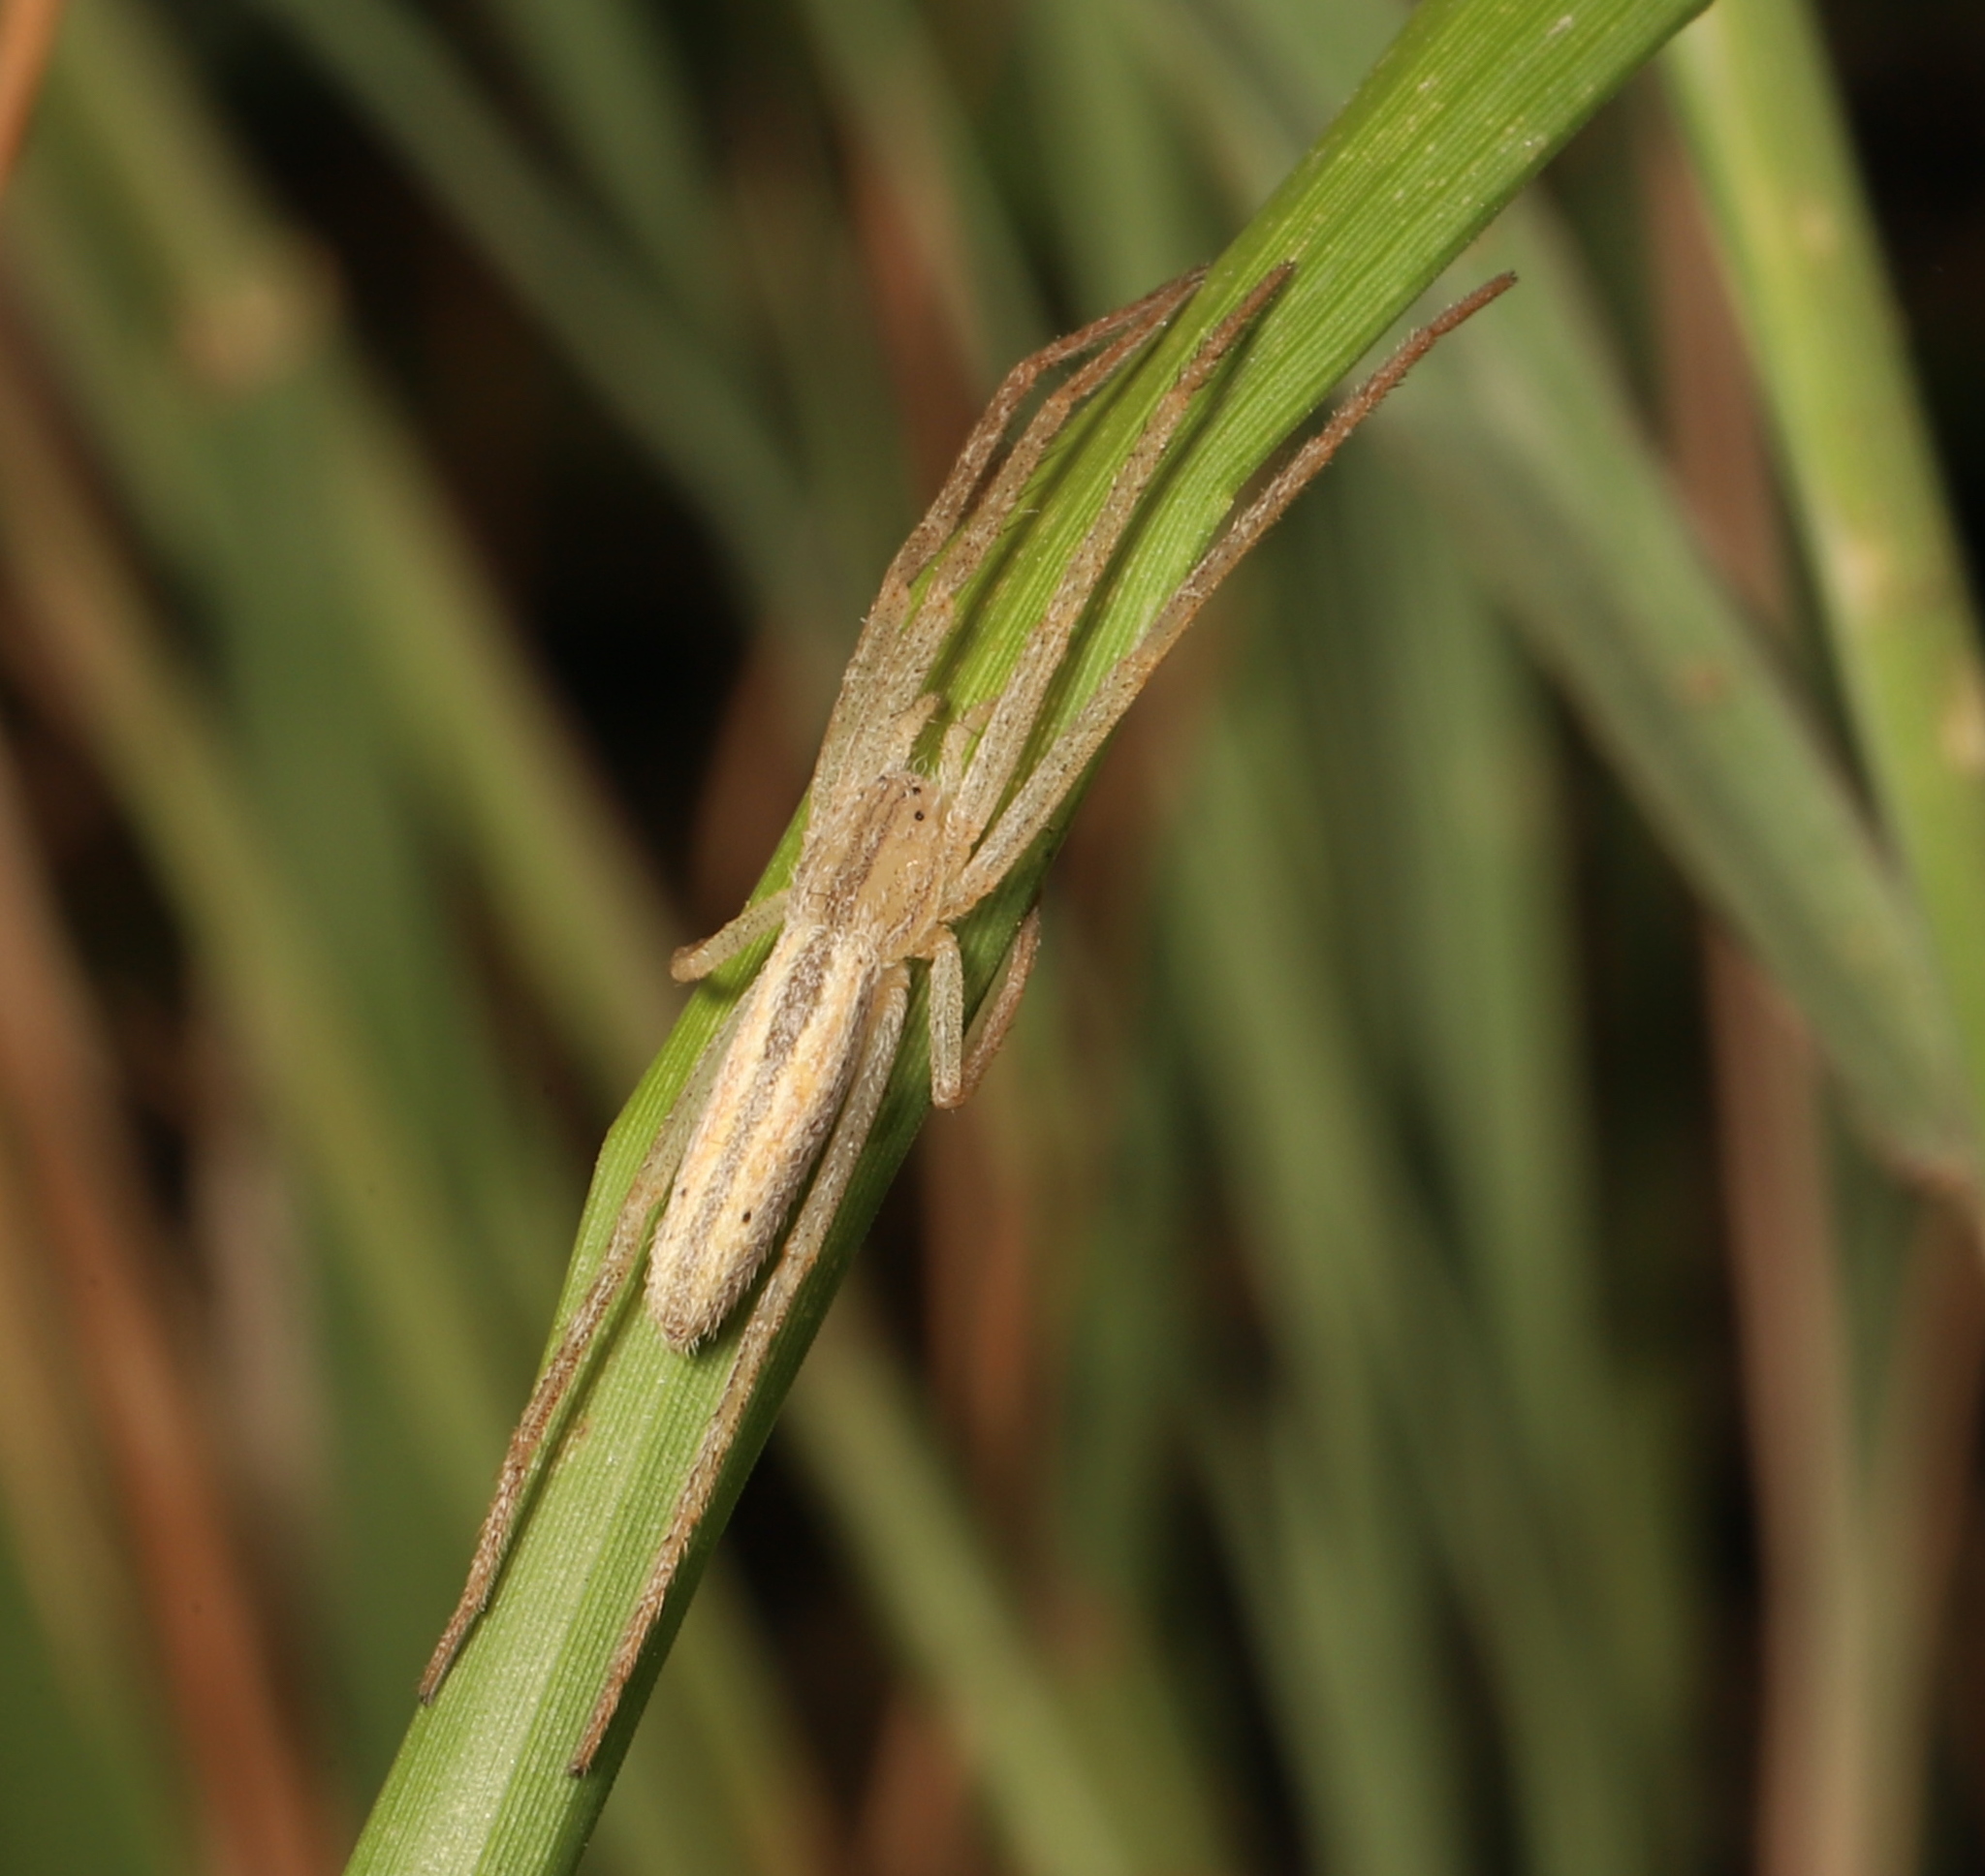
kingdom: Animalia
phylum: Arthropoda
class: Arachnida
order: Araneae
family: Philodromidae
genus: Tibellus
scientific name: Tibellus oblongus
